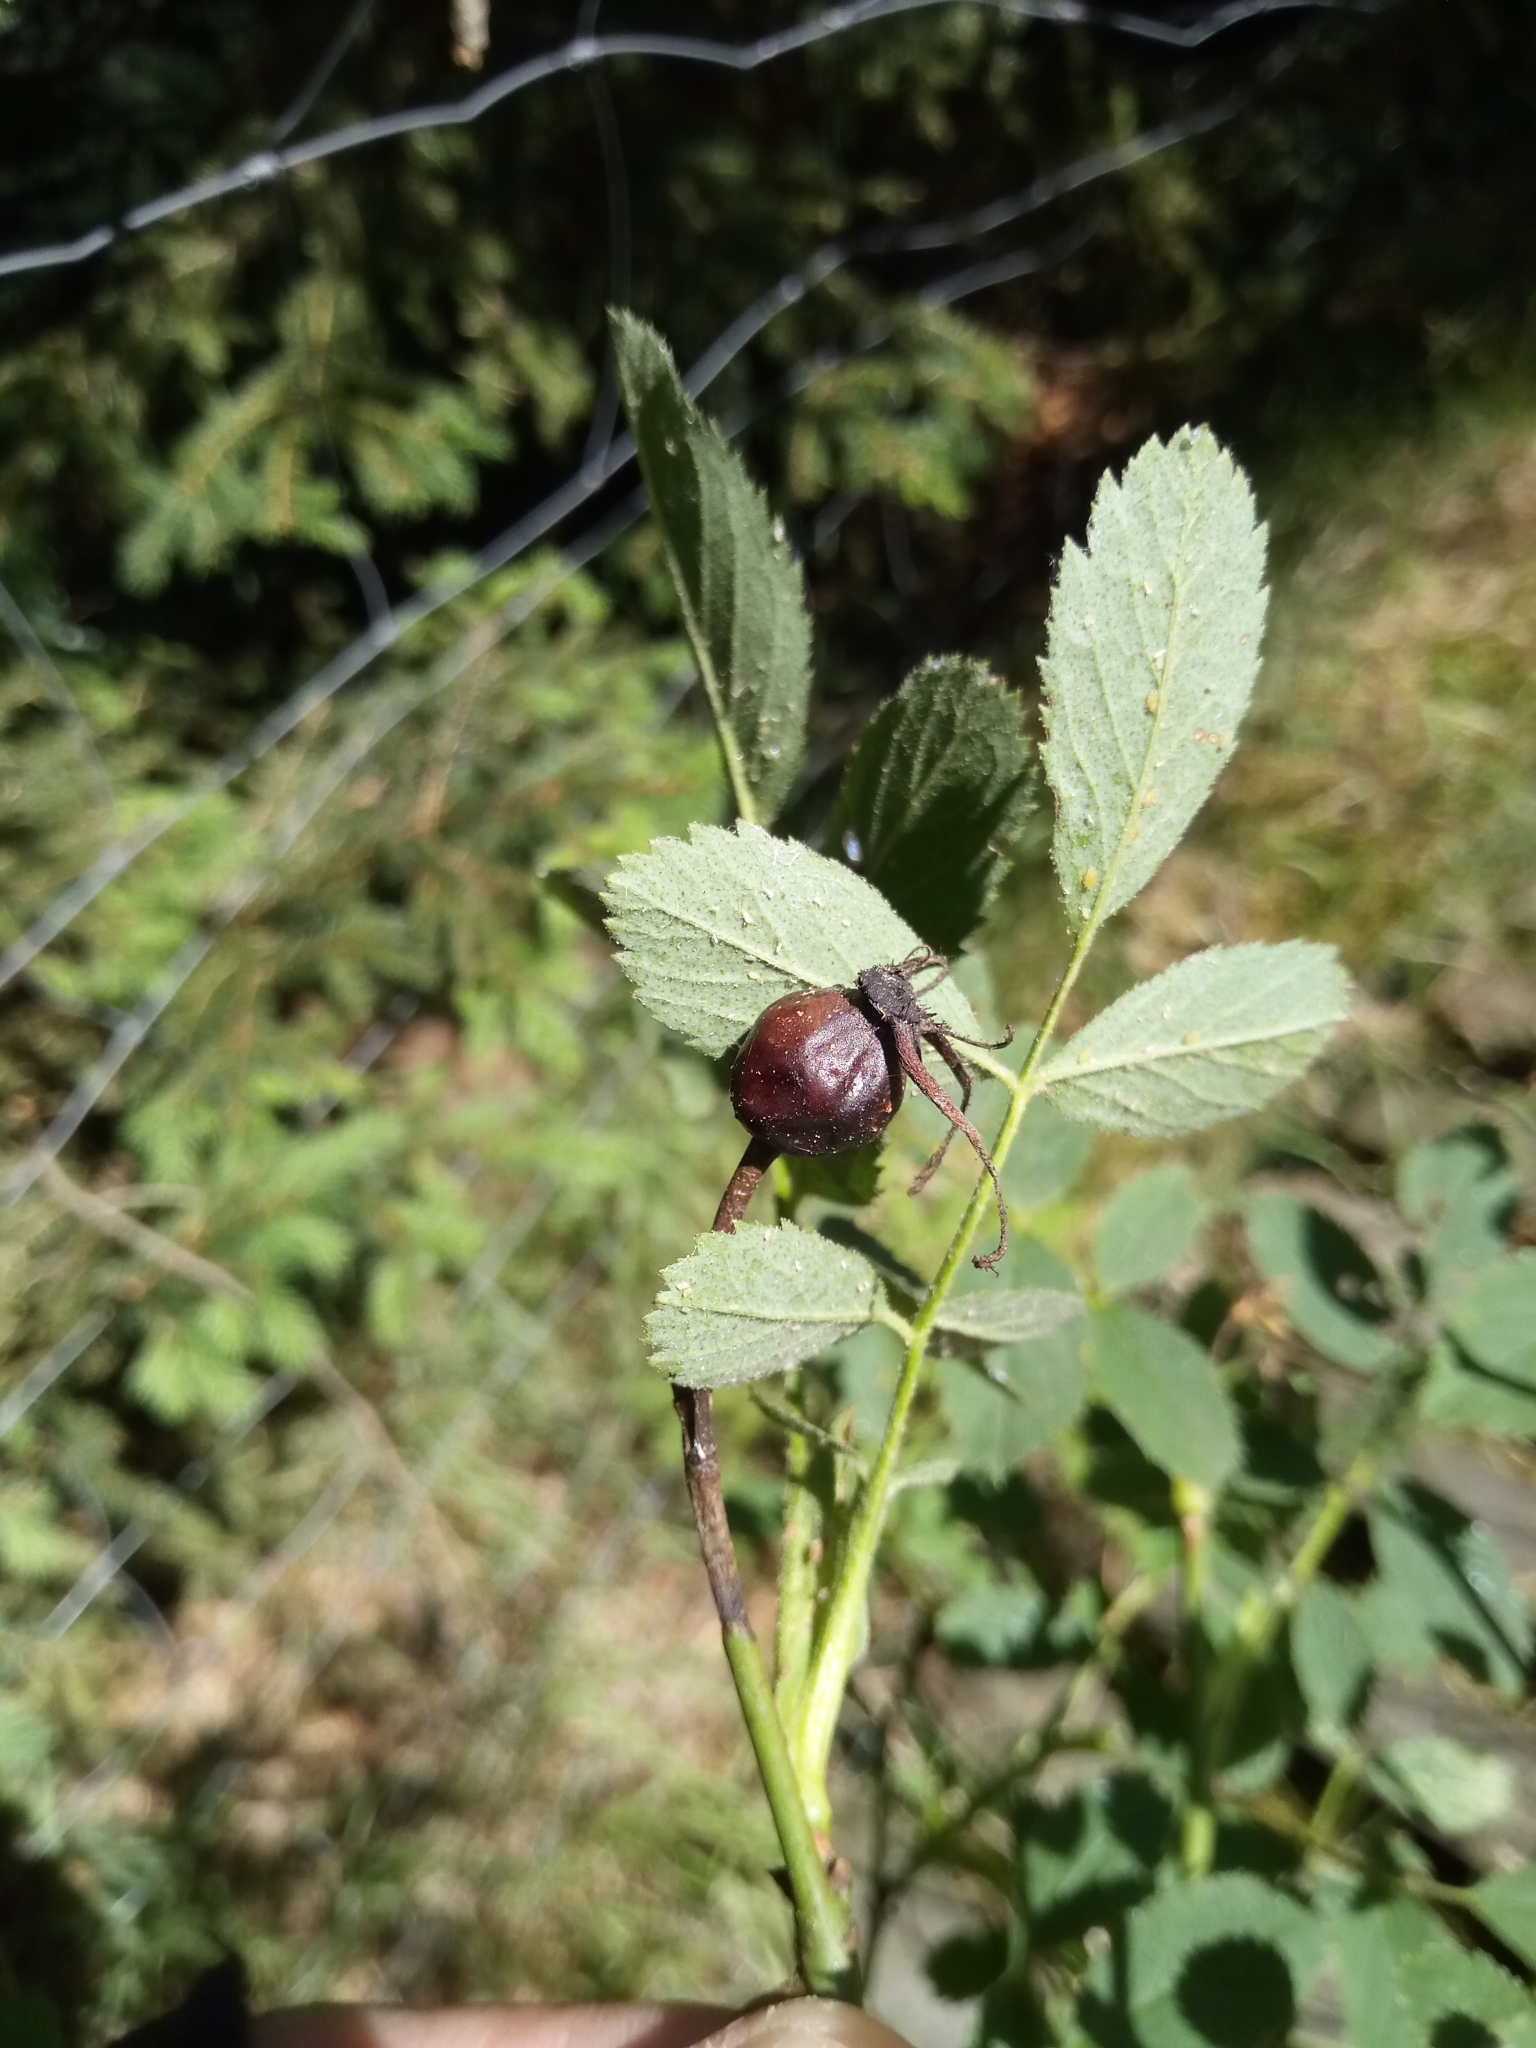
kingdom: Plantae
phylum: Tracheophyta
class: Magnoliopsida
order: Rosales
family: Rosaceae
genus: Rosa
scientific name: Rosa inodora
